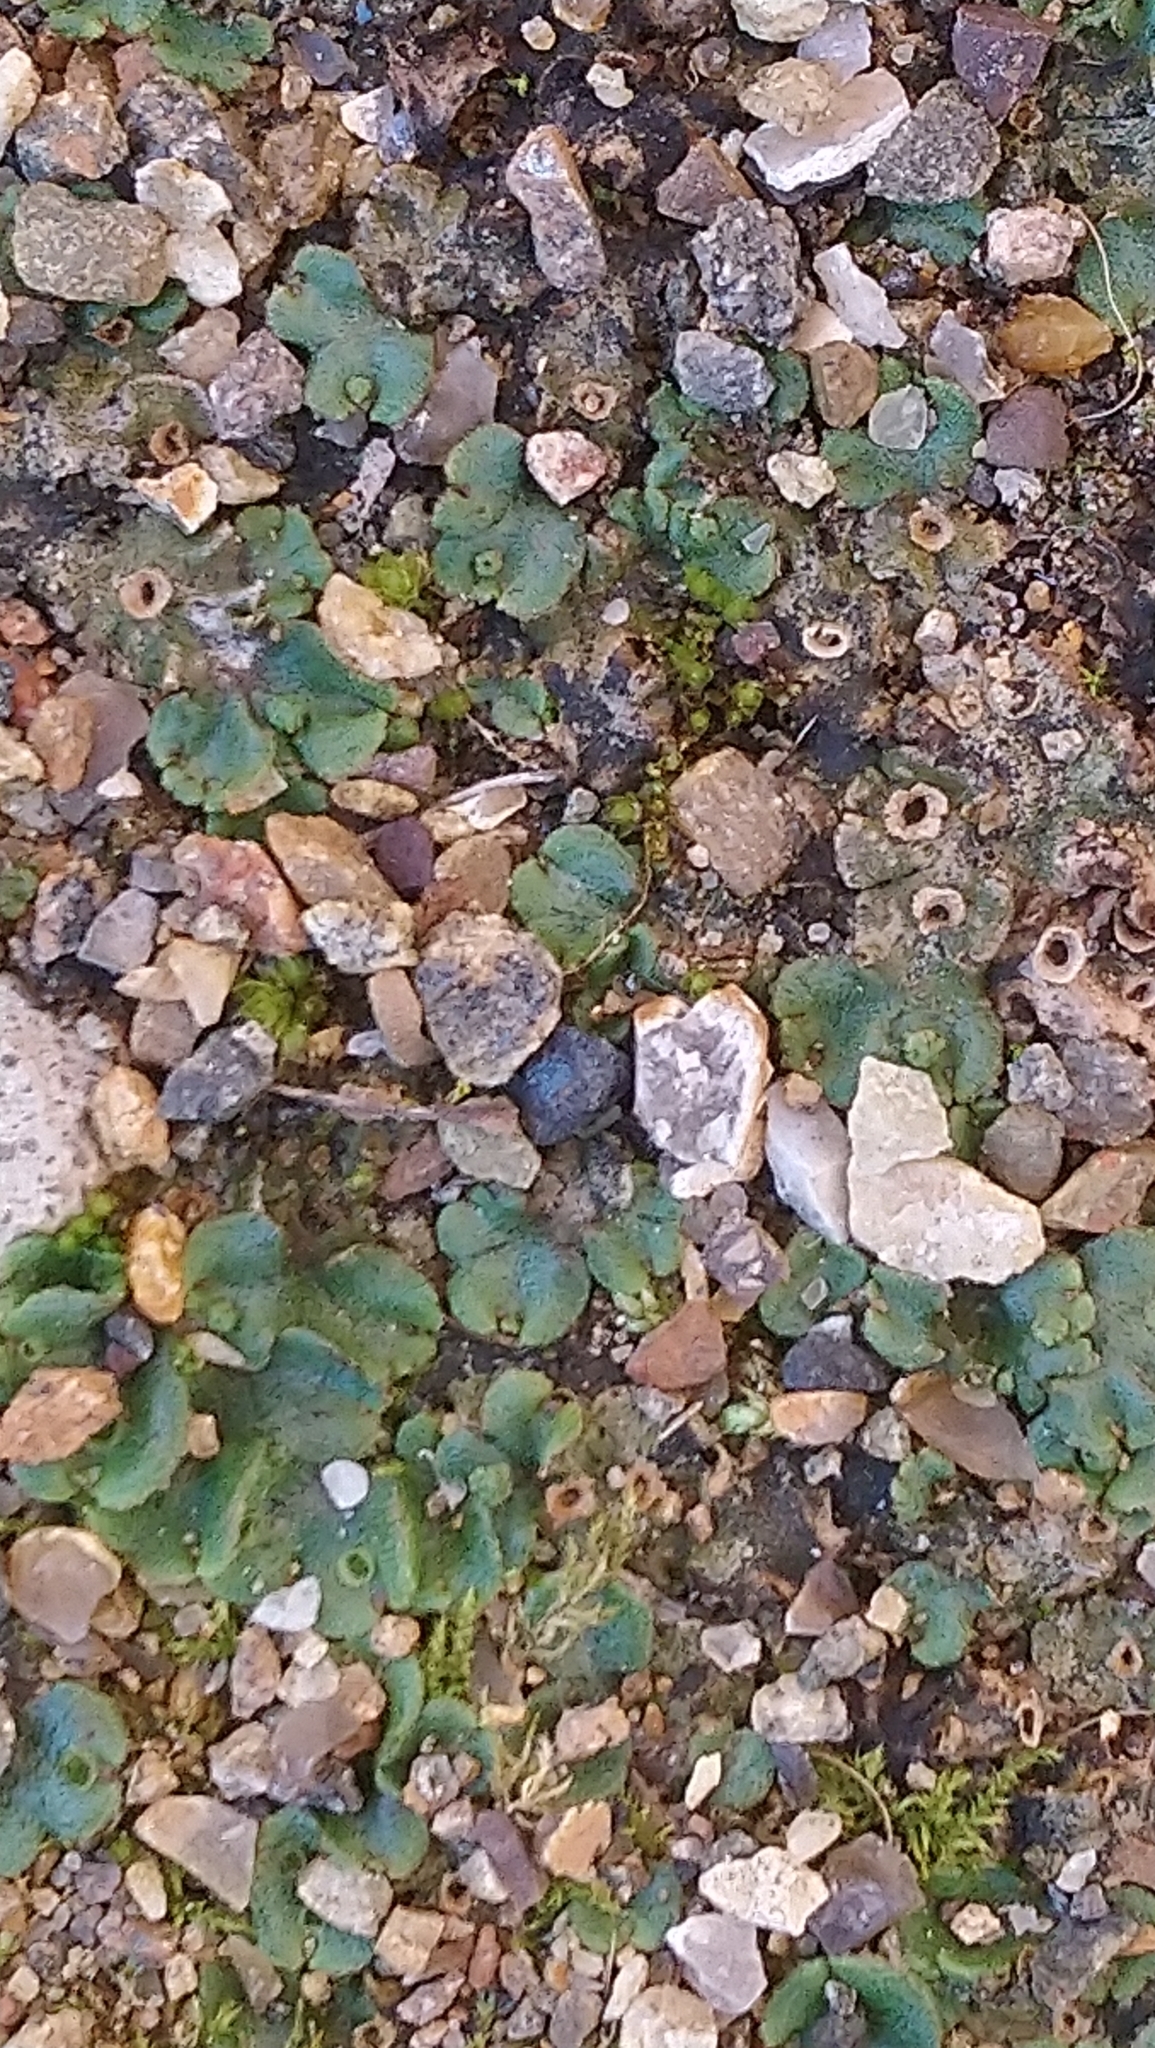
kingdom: Plantae
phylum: Marchantiophyta
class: Marchantiopsida
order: Marchantiales
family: Marchantiaceae
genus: Marchantia
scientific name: Marchantia polymorpha
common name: Common liverwort
